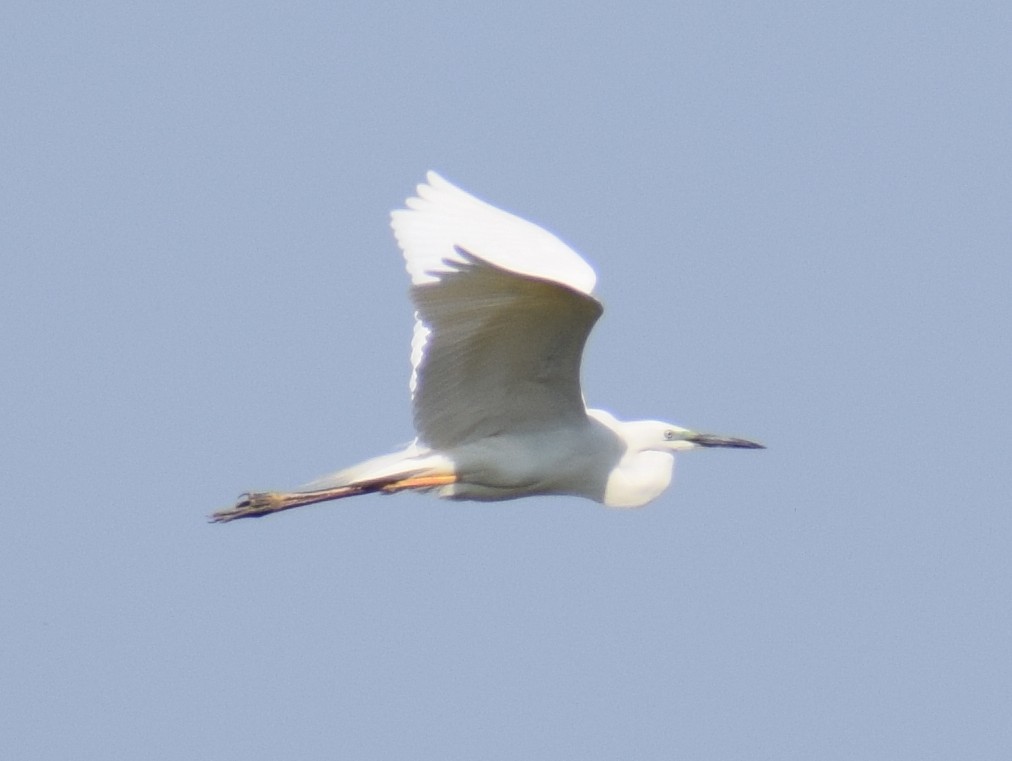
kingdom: Animalia
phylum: Chordata
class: Aves
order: Pelecaniformes
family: Ardeidae
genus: Ardea
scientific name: Ardea alba
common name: Great egret
